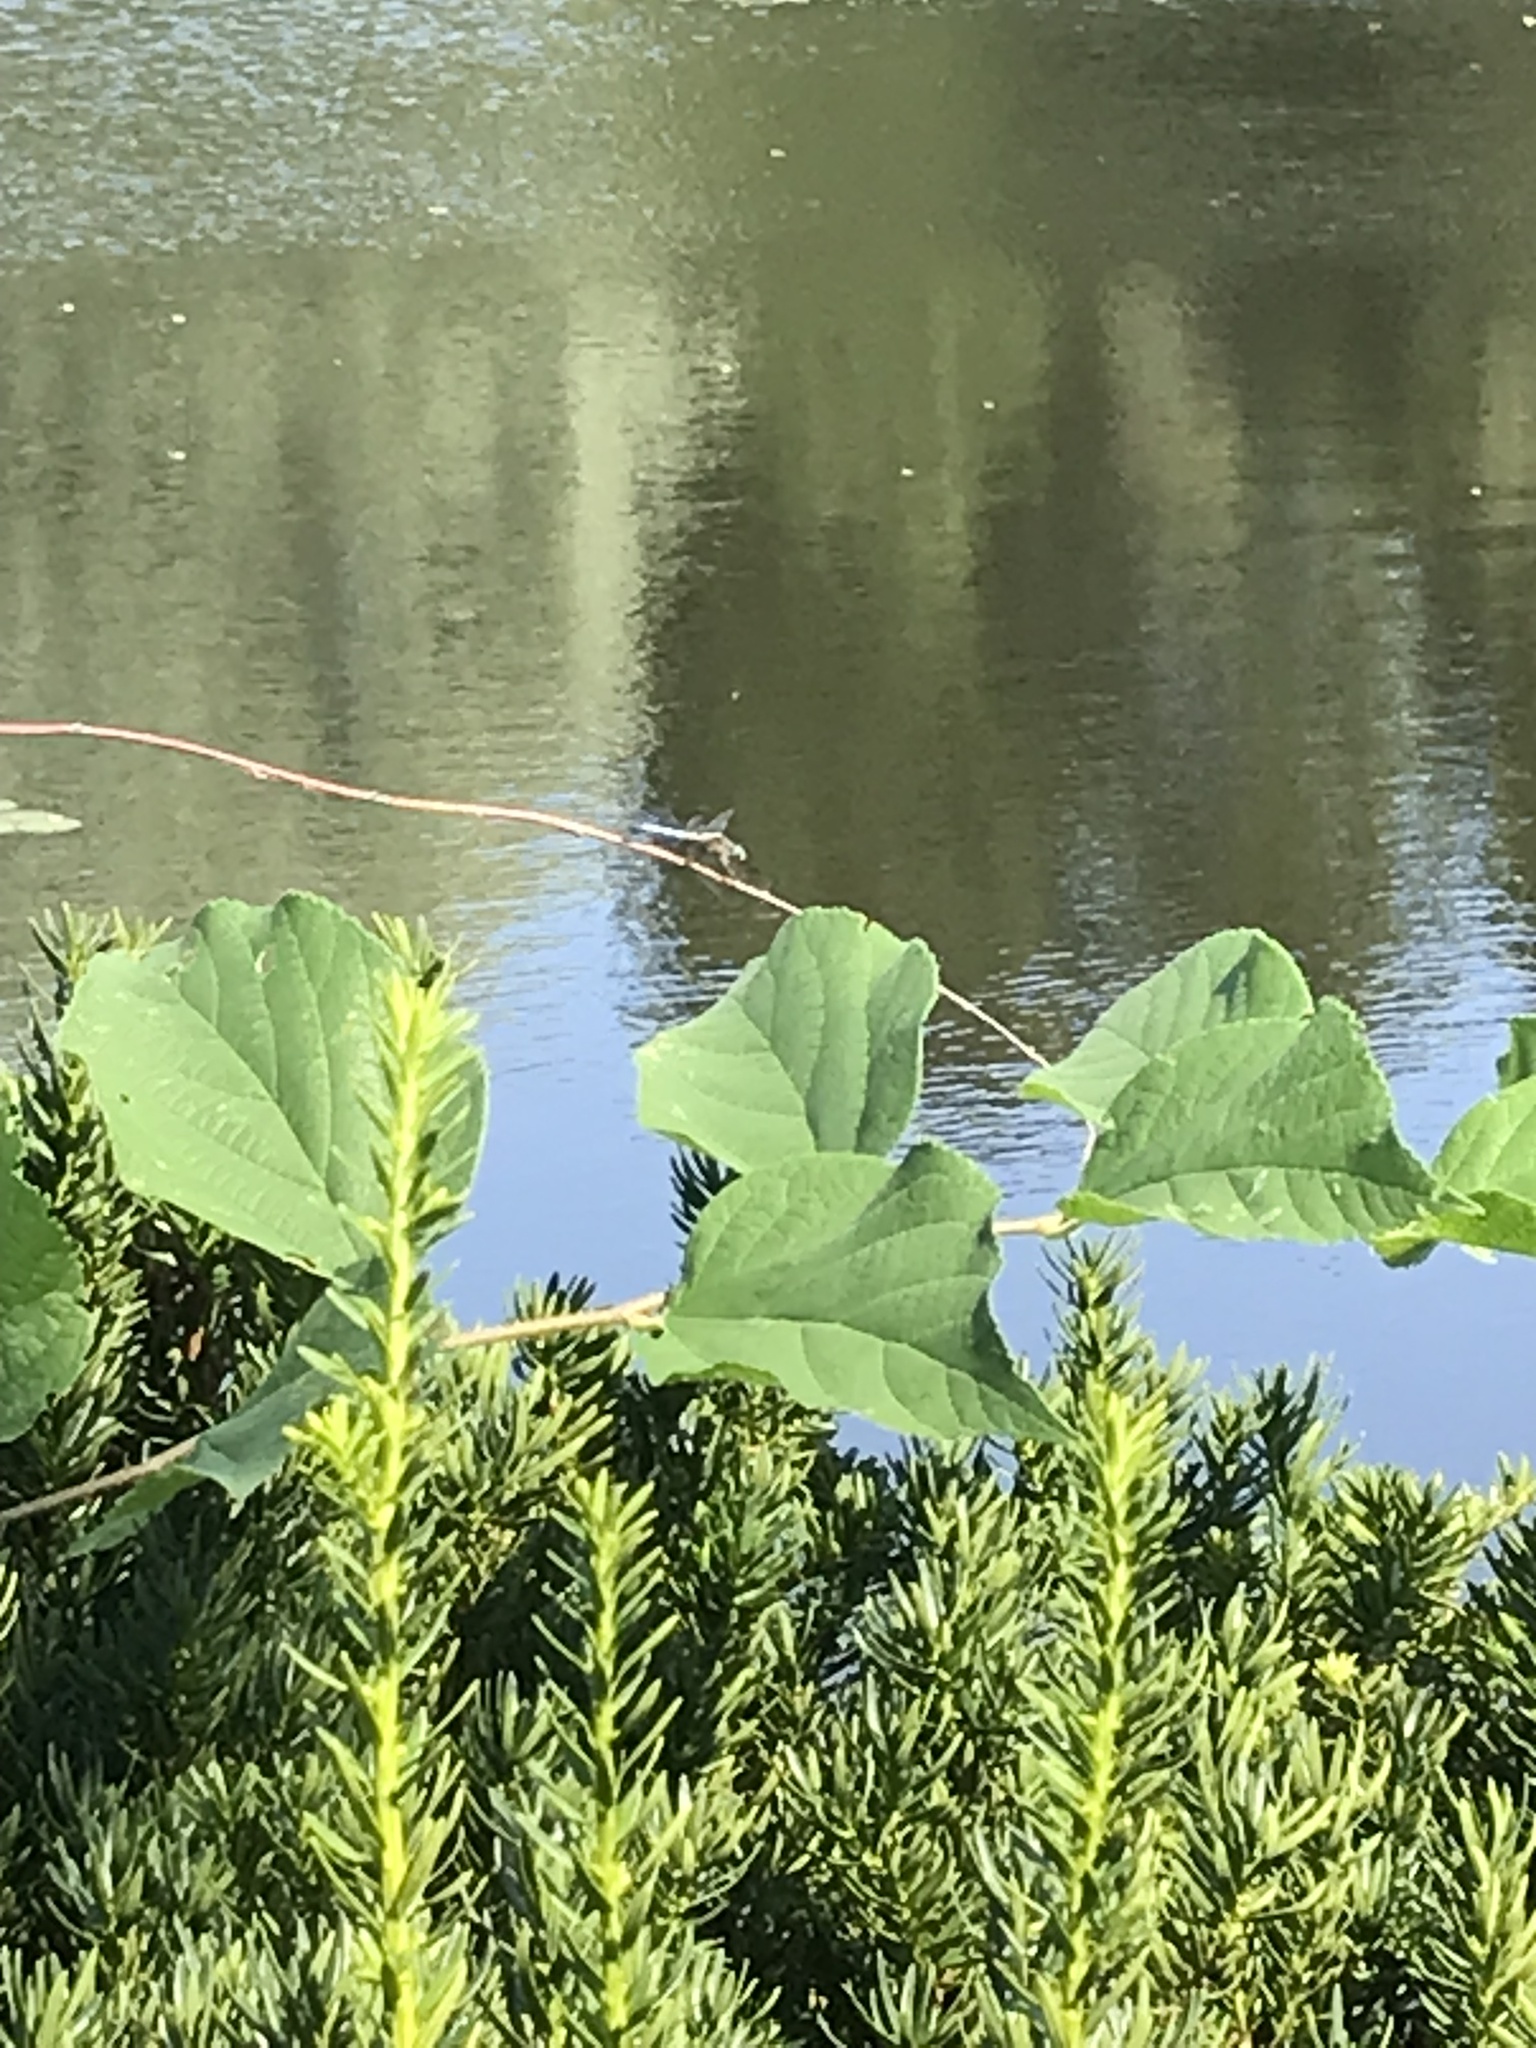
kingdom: Animalia
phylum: Arthropoda
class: Insecta
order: Odonata
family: Libellulidae
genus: Pachydiplax
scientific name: Pachydiplax longipennis
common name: Blue dasher
